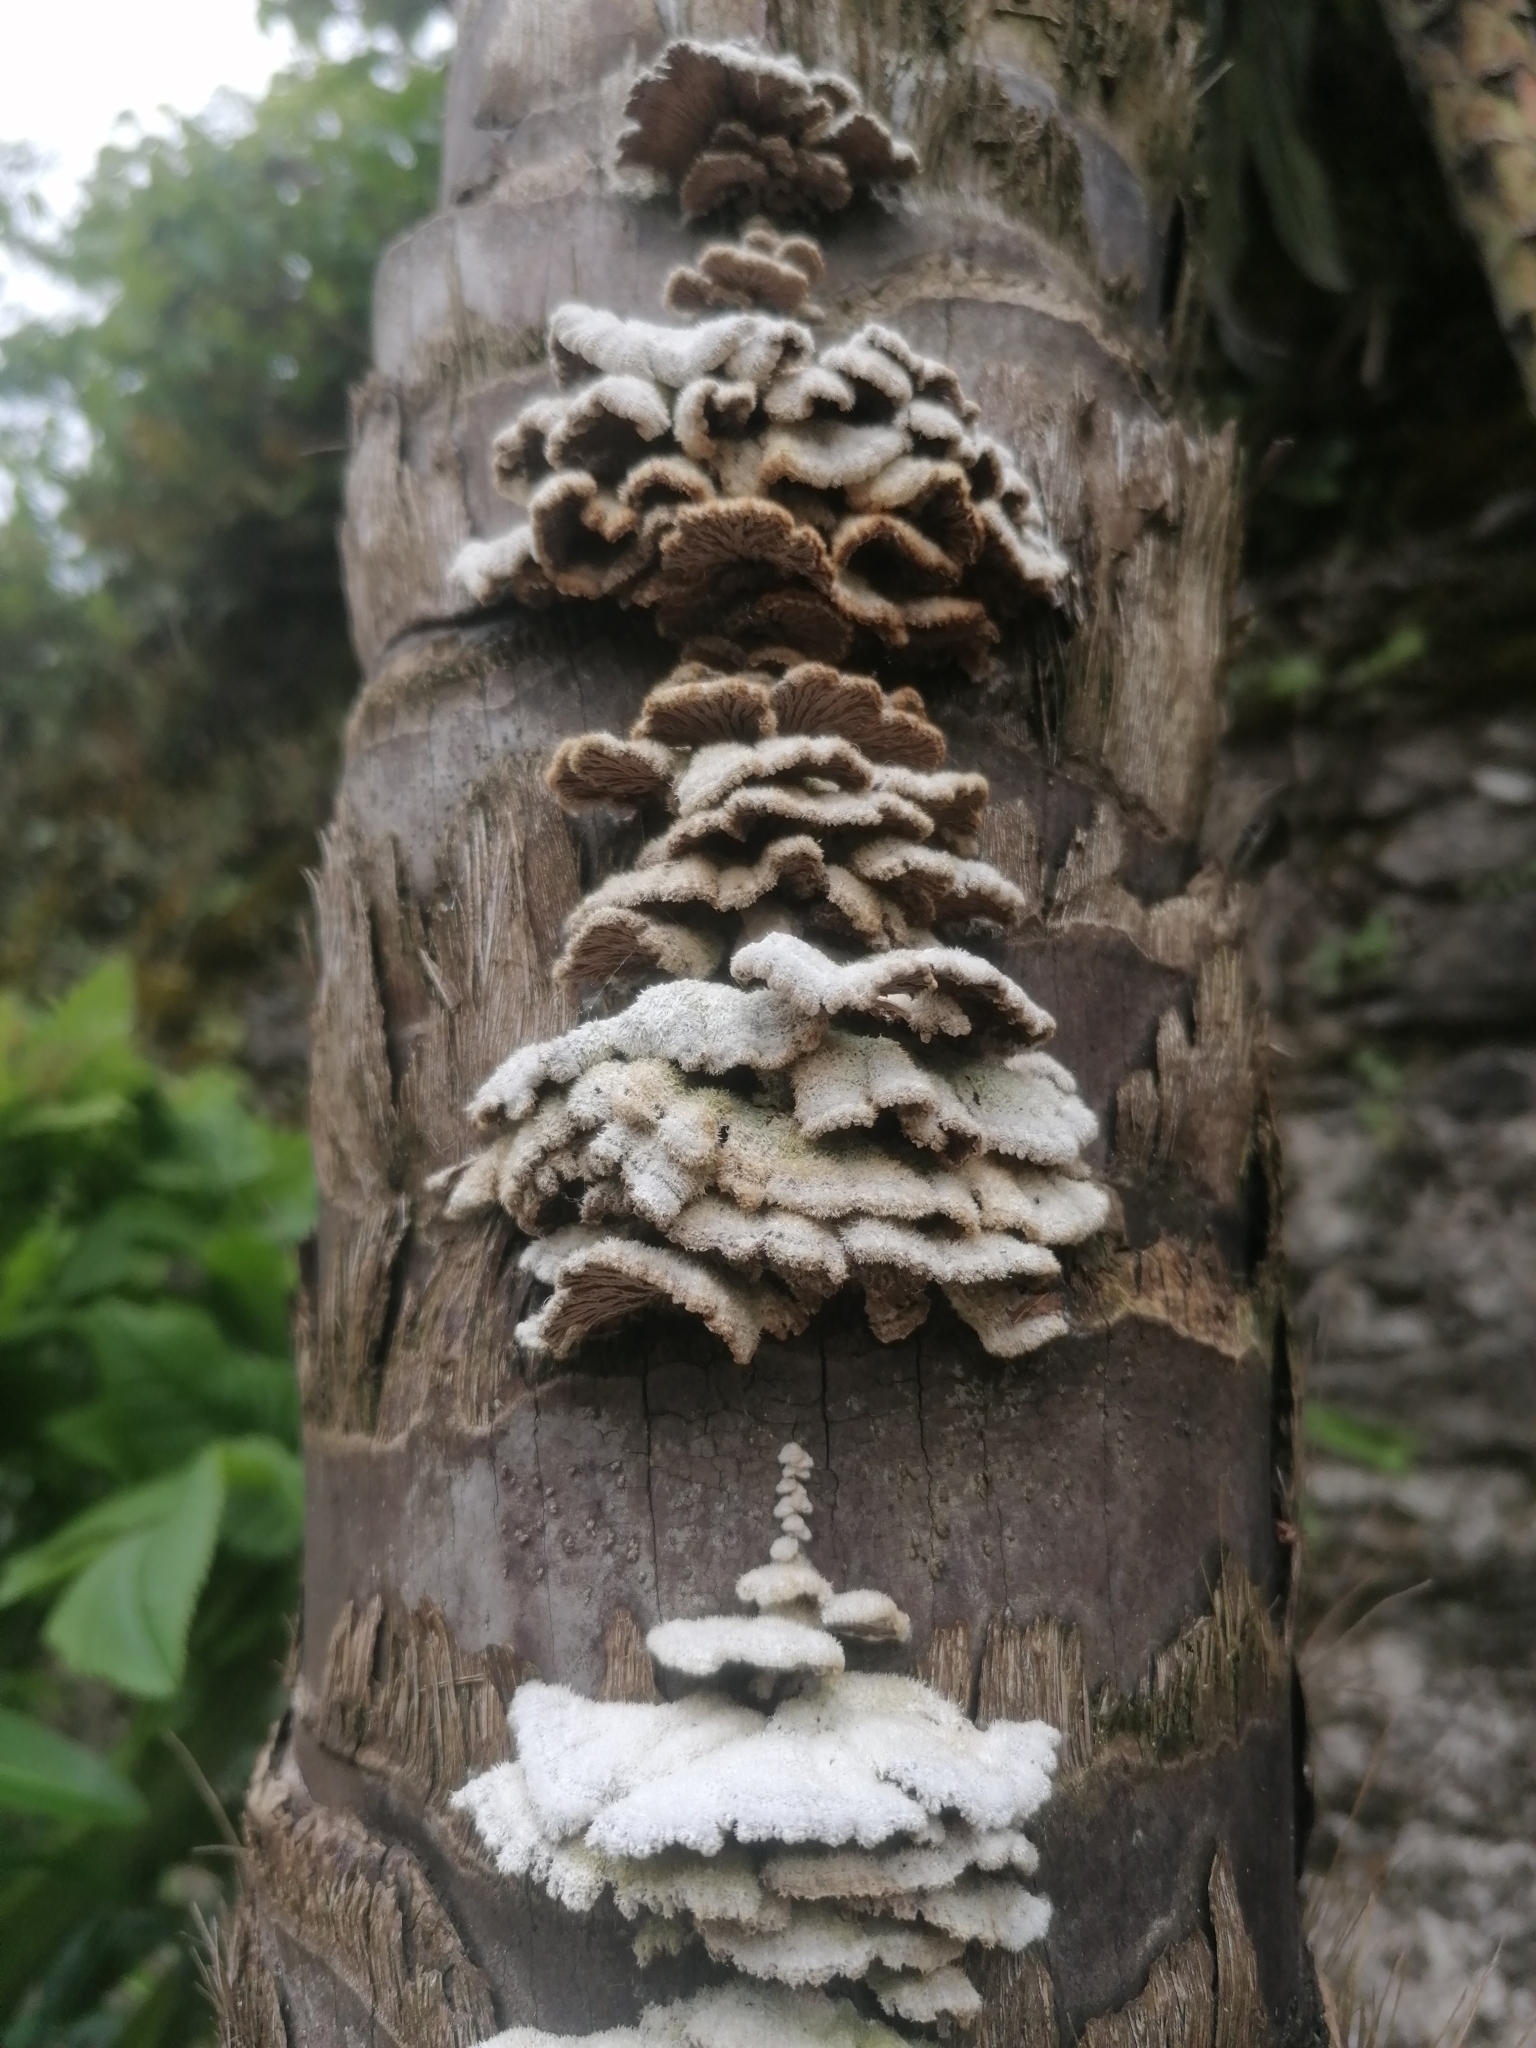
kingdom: Fungi
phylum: Basidiomycota
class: Agaricomycetes
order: Agaricales
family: Schizophyllaceae
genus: Schizophyllum
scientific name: Schizophyllum commune
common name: Common porecrust
